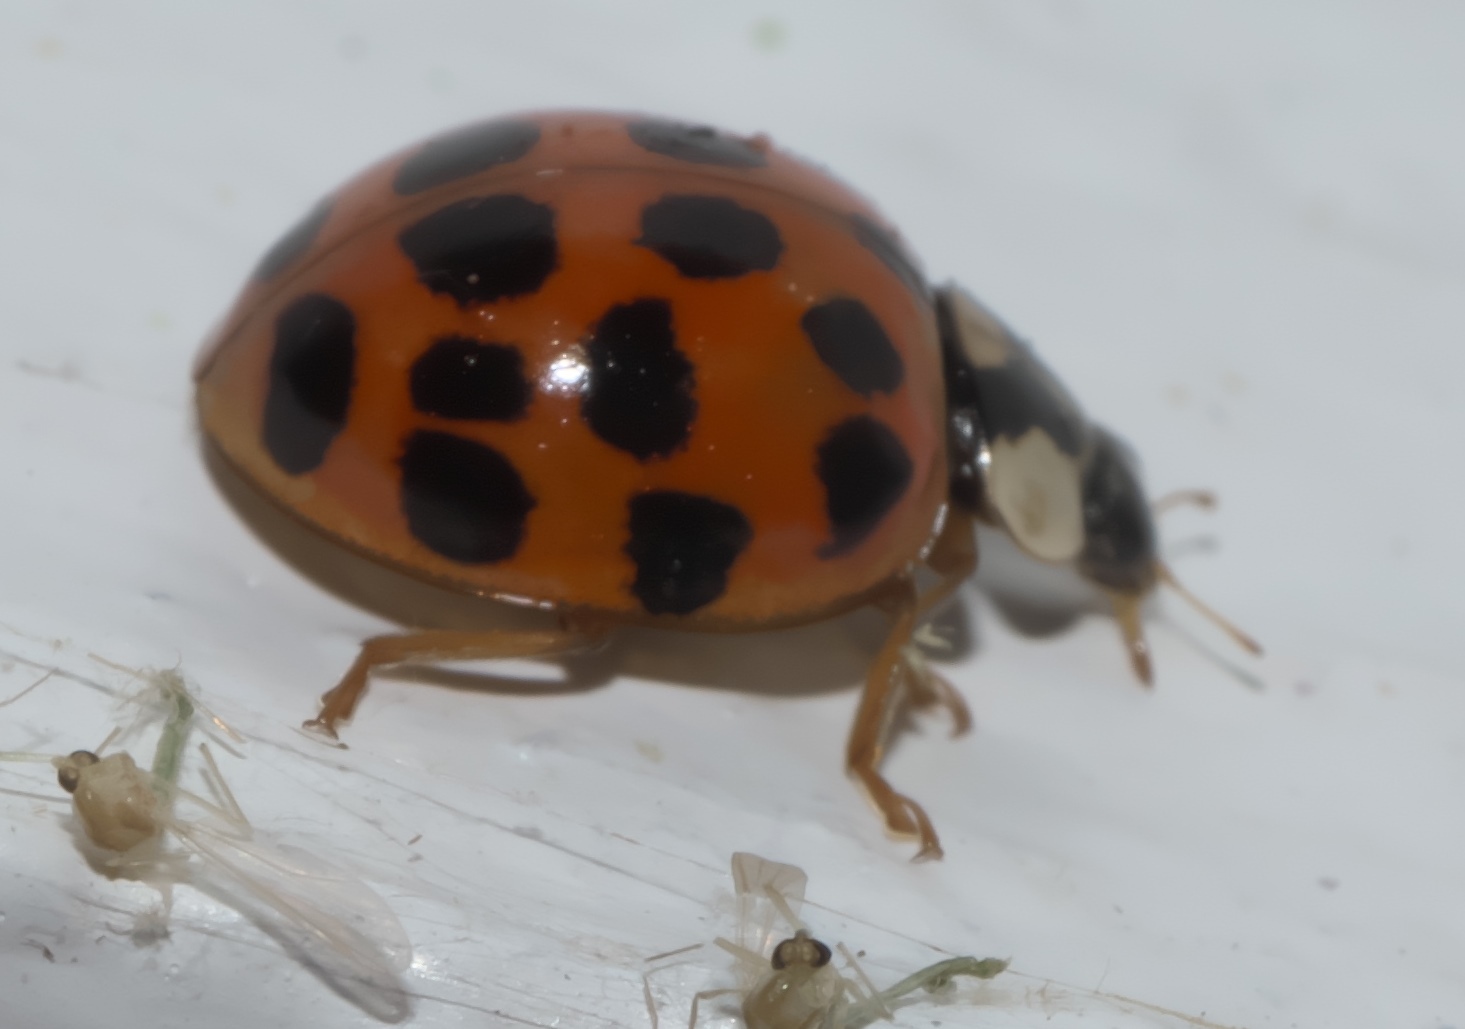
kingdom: Animalia
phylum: Arthropoda
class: Insecta
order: Coleoptera
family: Coccinellidae
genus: Harmonia
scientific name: Harmonia axyridis
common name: Harlequin ladybird
